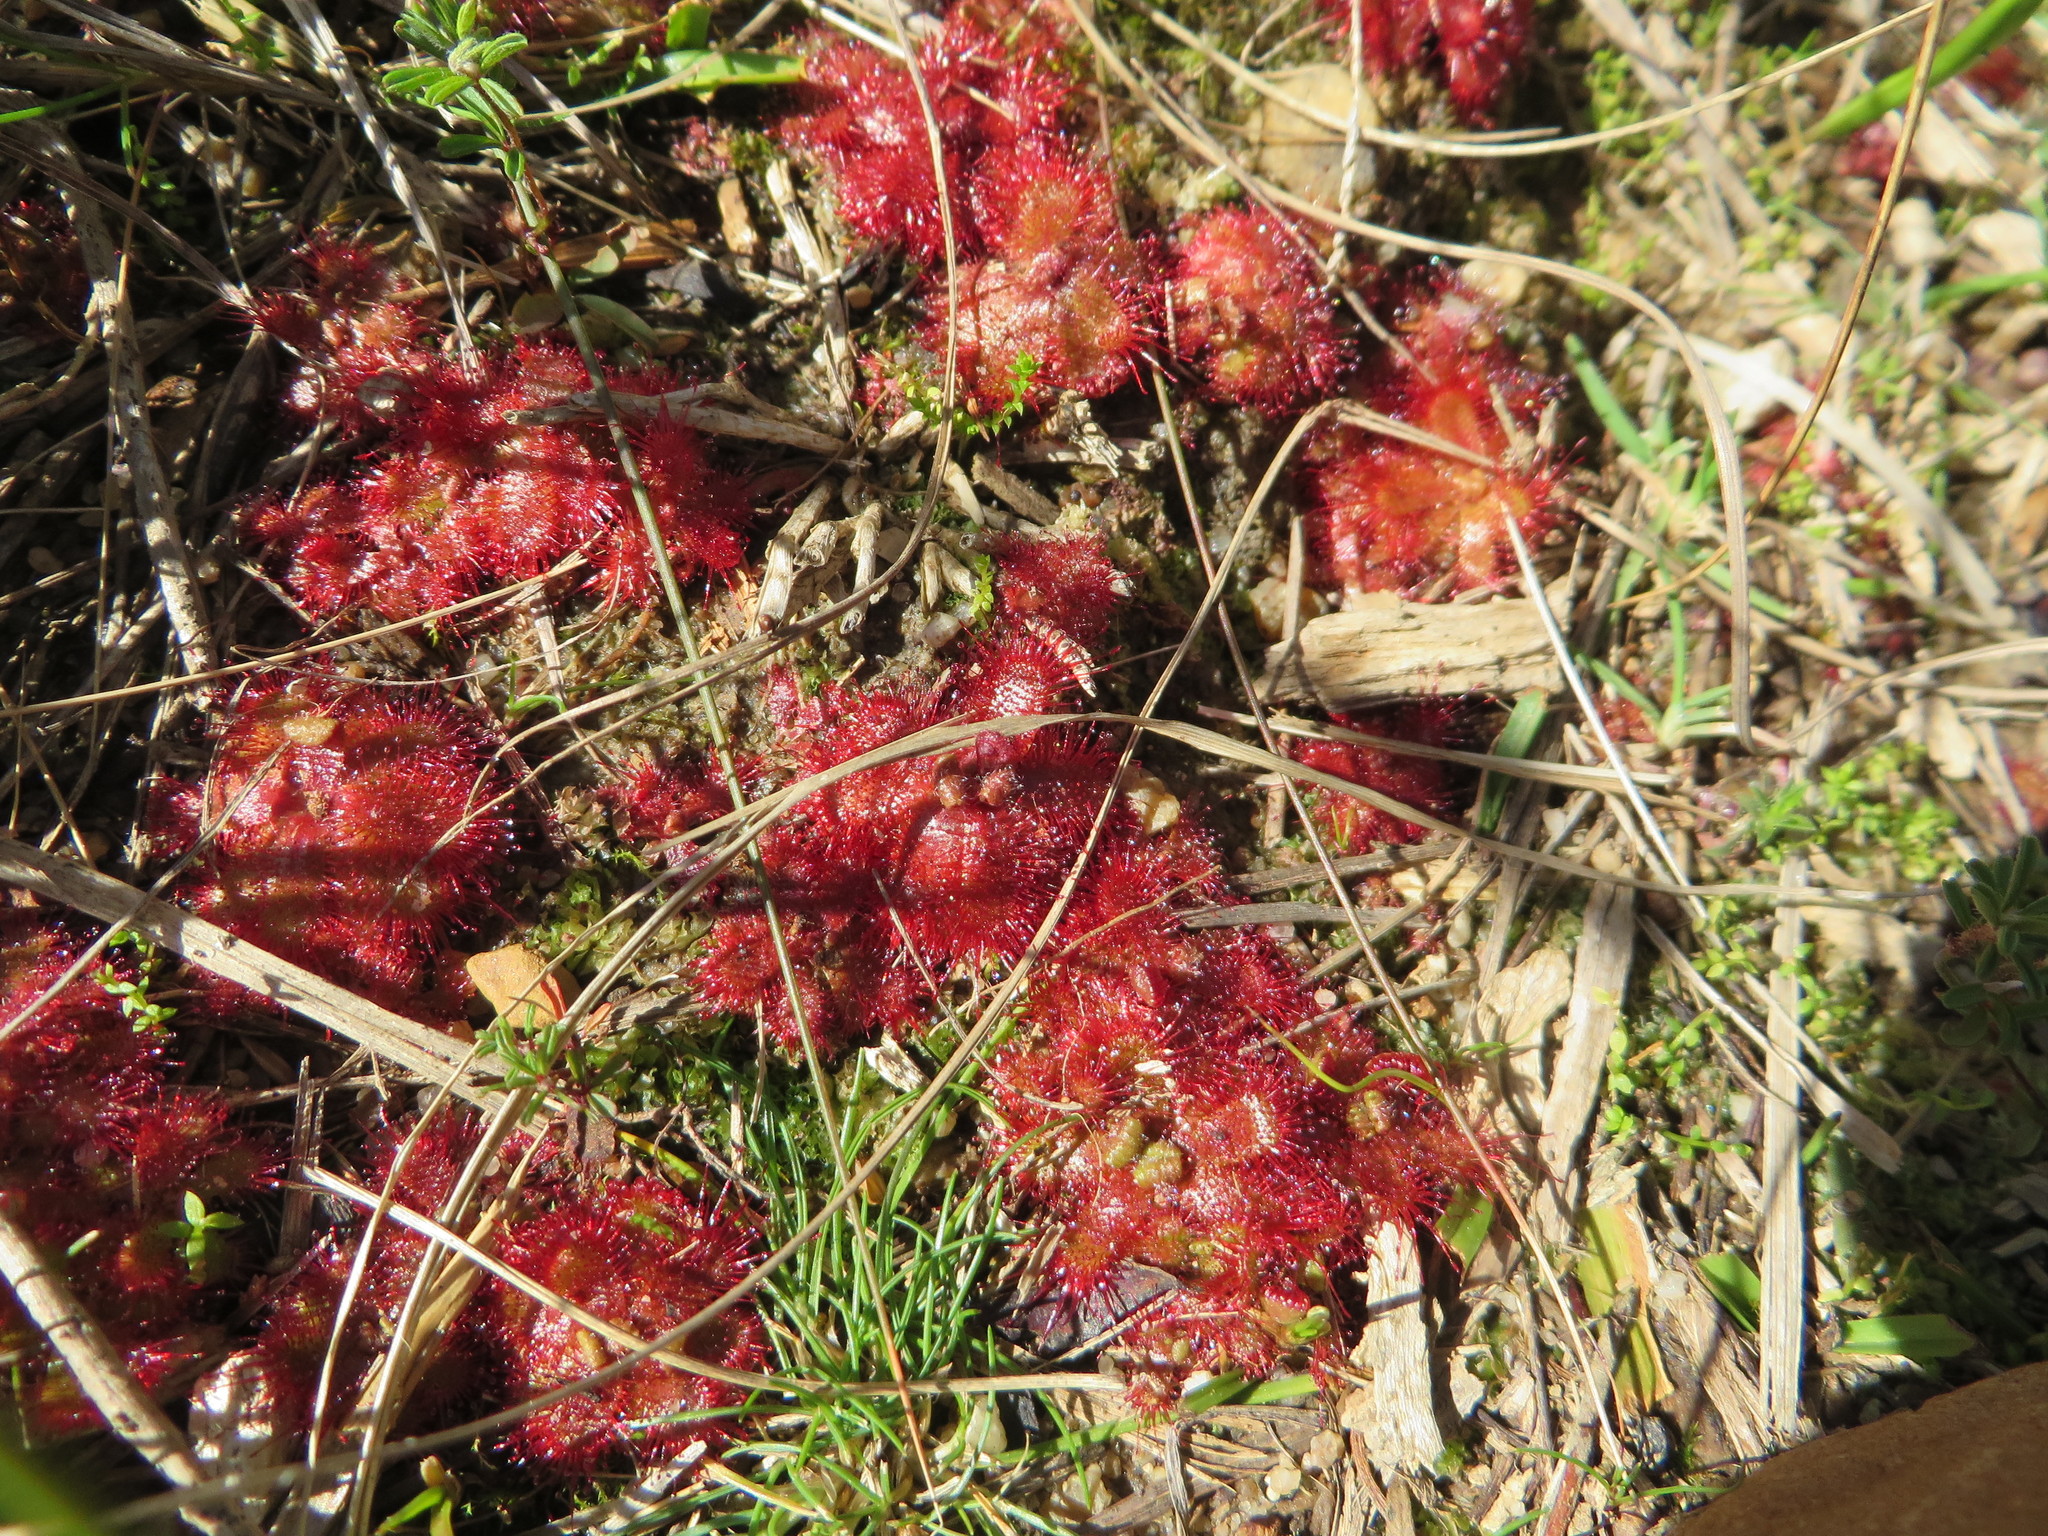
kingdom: Plantae
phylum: Tracheophyta
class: Magnoliopsida
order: Caryophyllales
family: Droseraceae
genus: Drosera
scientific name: Drosera trinervia
